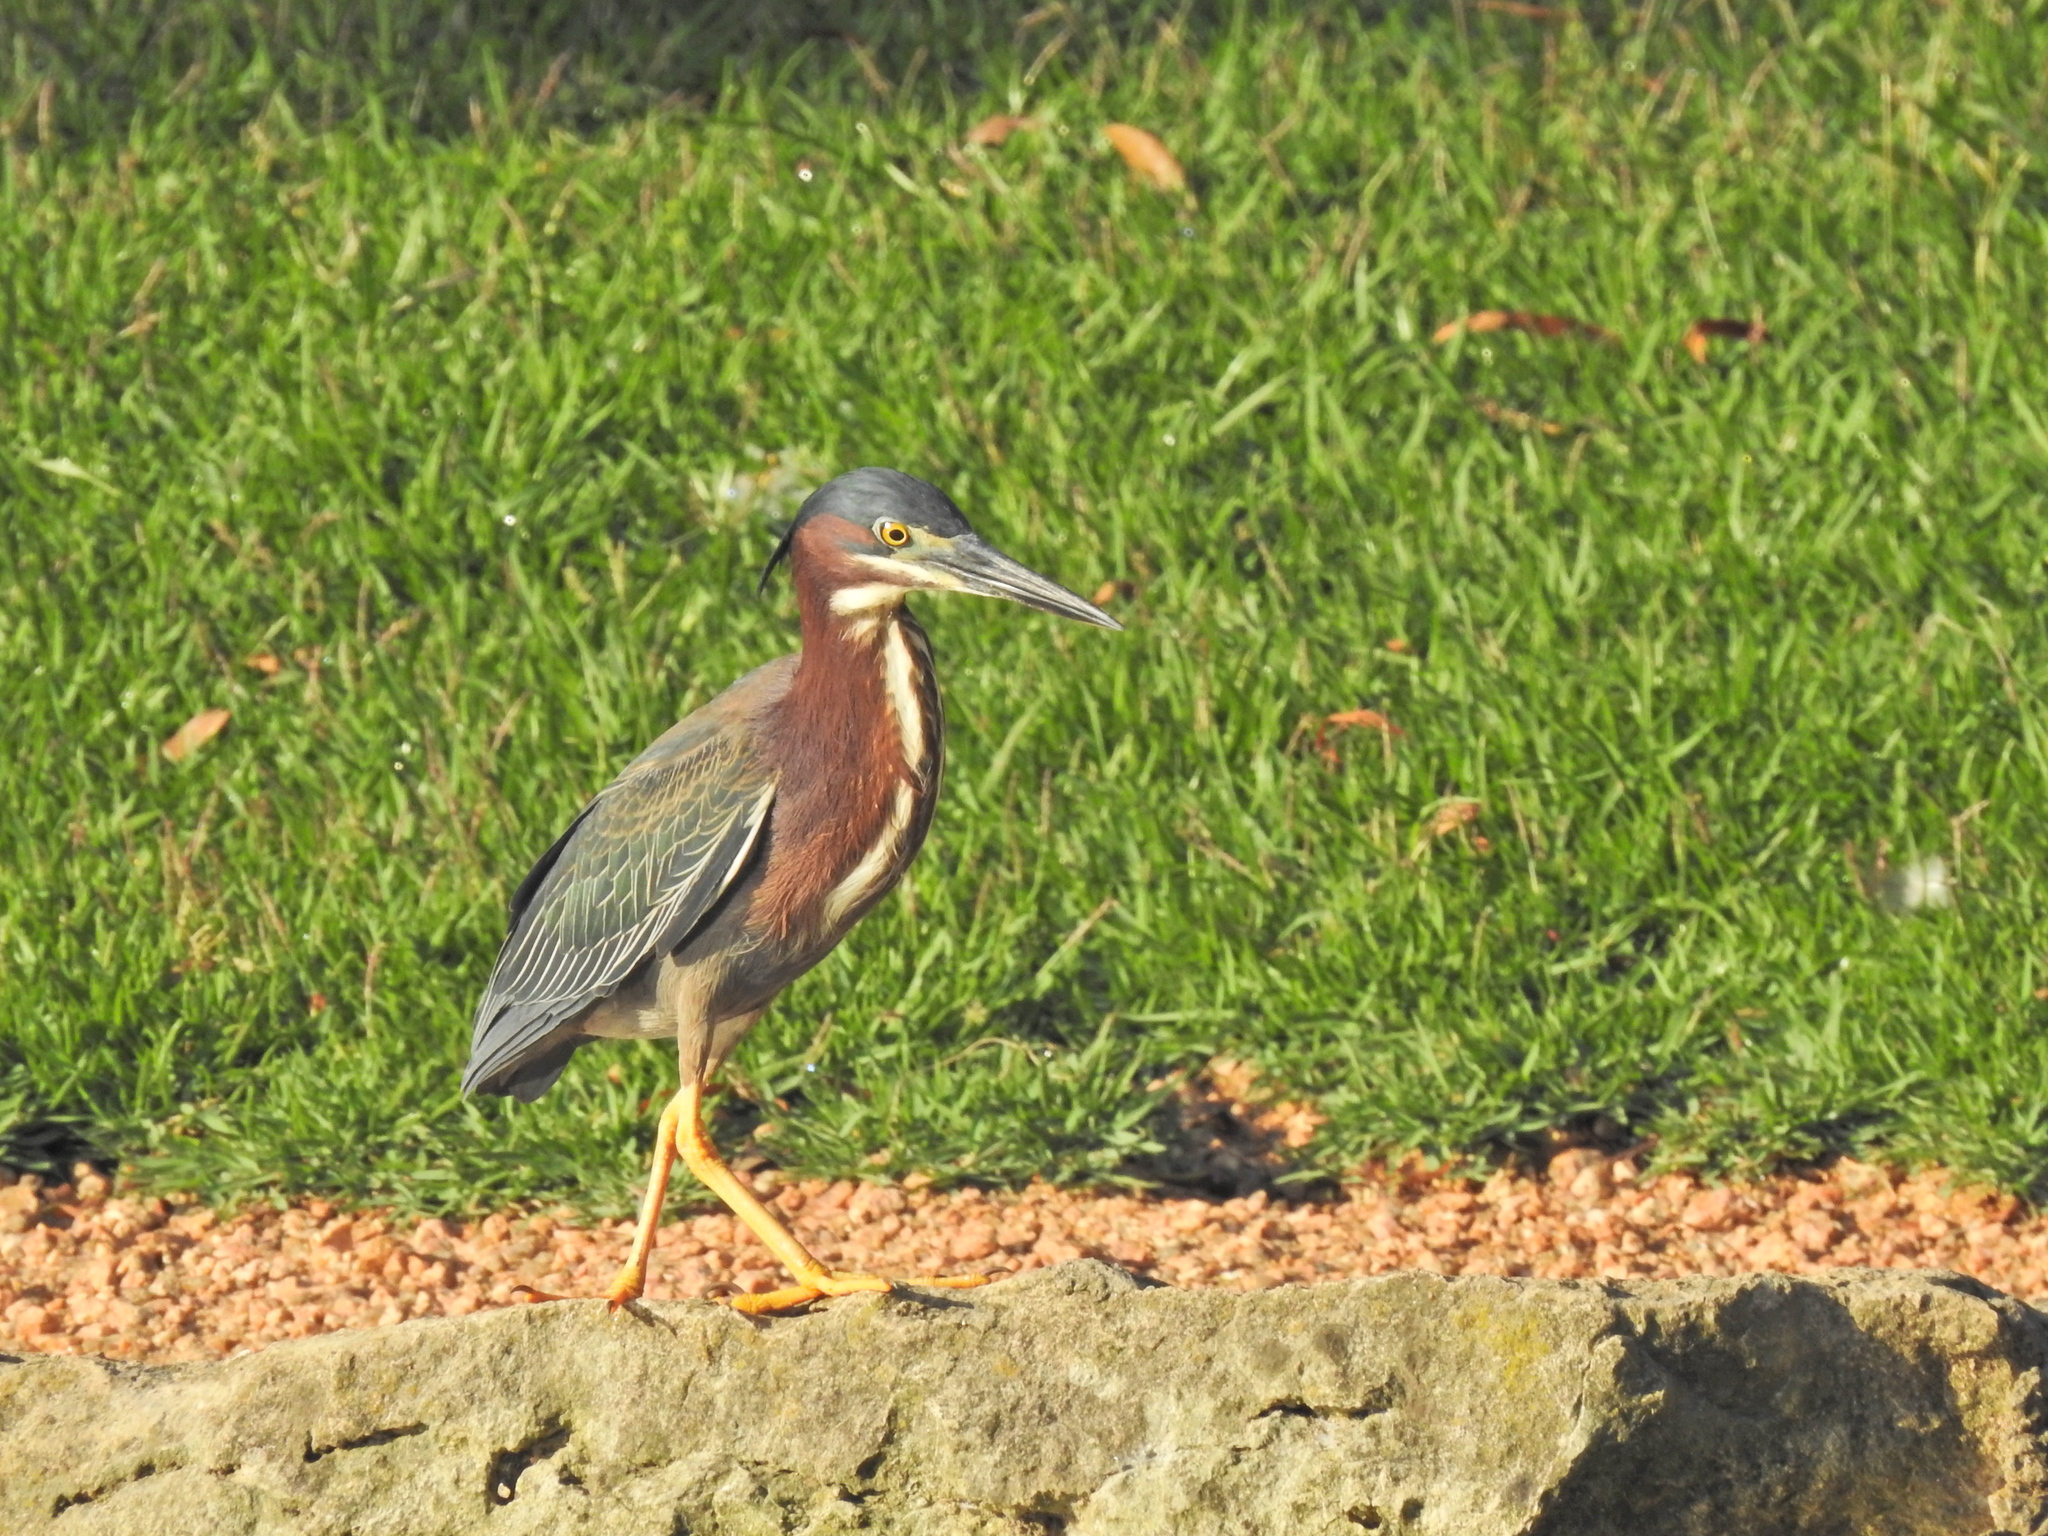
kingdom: Animalia
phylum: Chordata
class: Aves
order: Pelecaniformes
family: Ardeidae
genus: Butorides
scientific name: Butorides virescens
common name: Green heron
